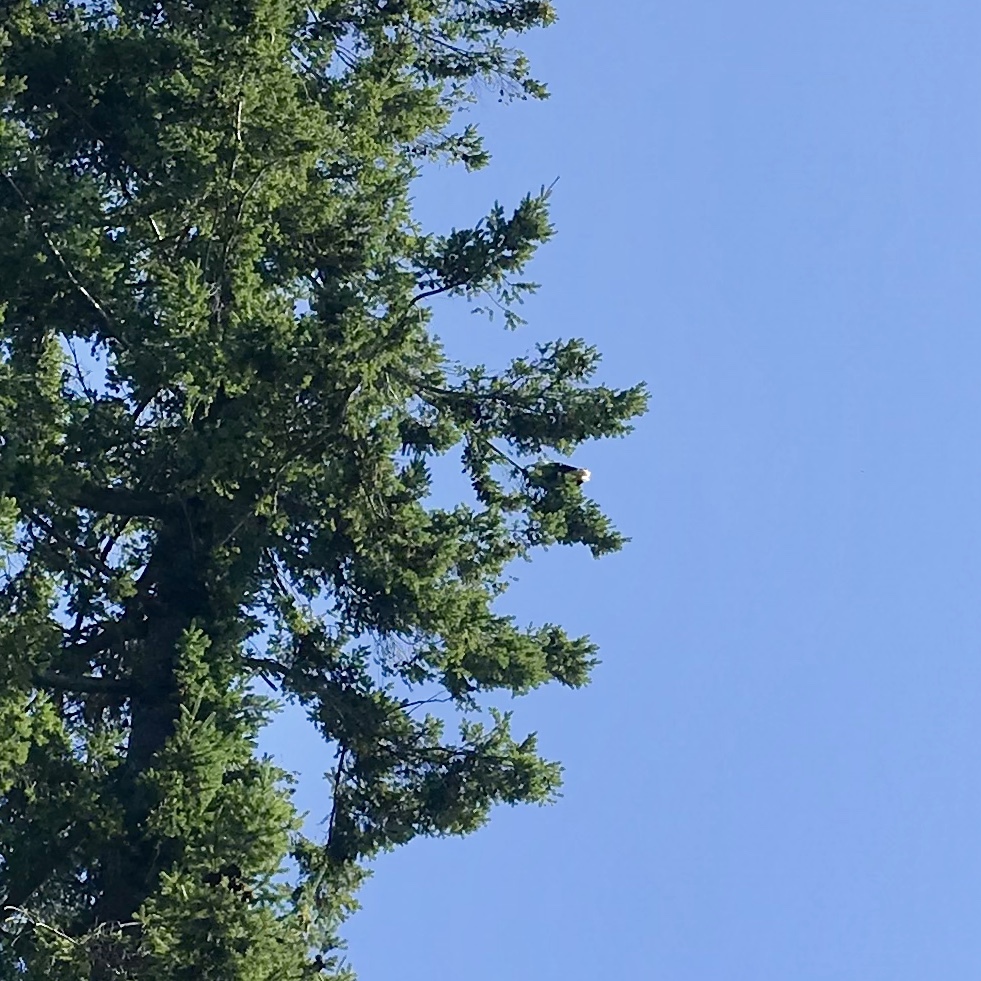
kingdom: Animalia
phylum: Chordata
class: Aves
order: Accipitriformes
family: Accipitridae
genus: Haliaeetus
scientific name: Haliaeetus leucocephalus
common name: Bald eagle
